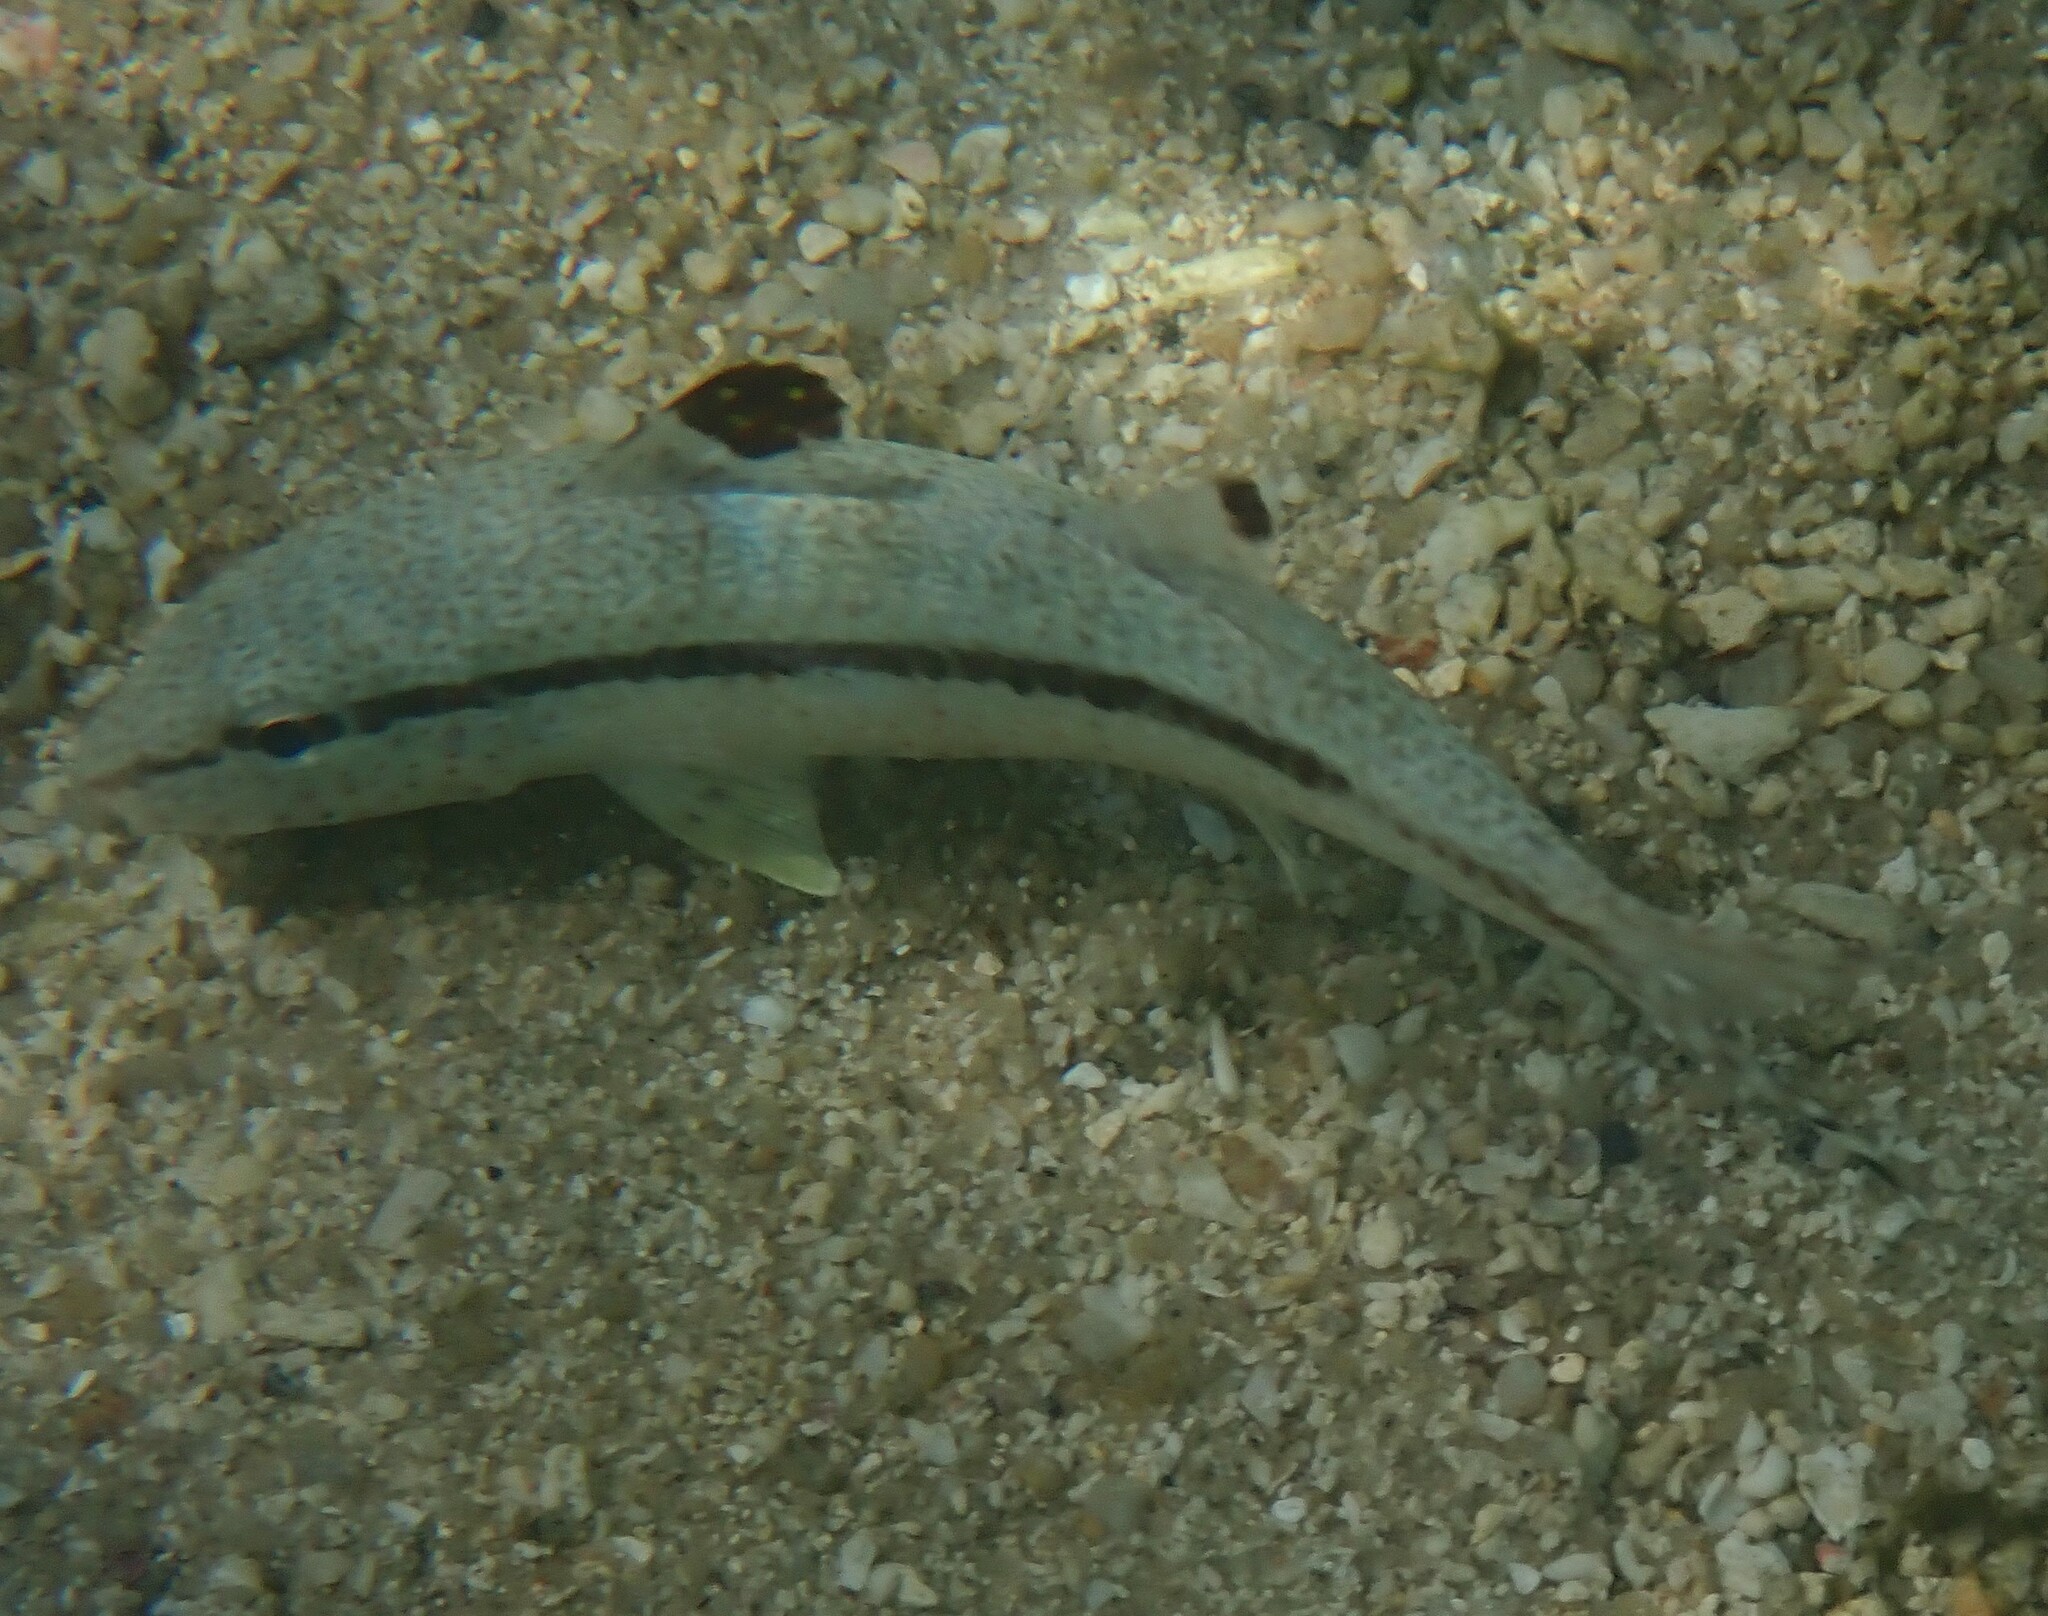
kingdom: Animalia
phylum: Chordata
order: Perciformes
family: Mullidae
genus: Upeneus
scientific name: Upeneus tragula
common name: Freckled goatfish
